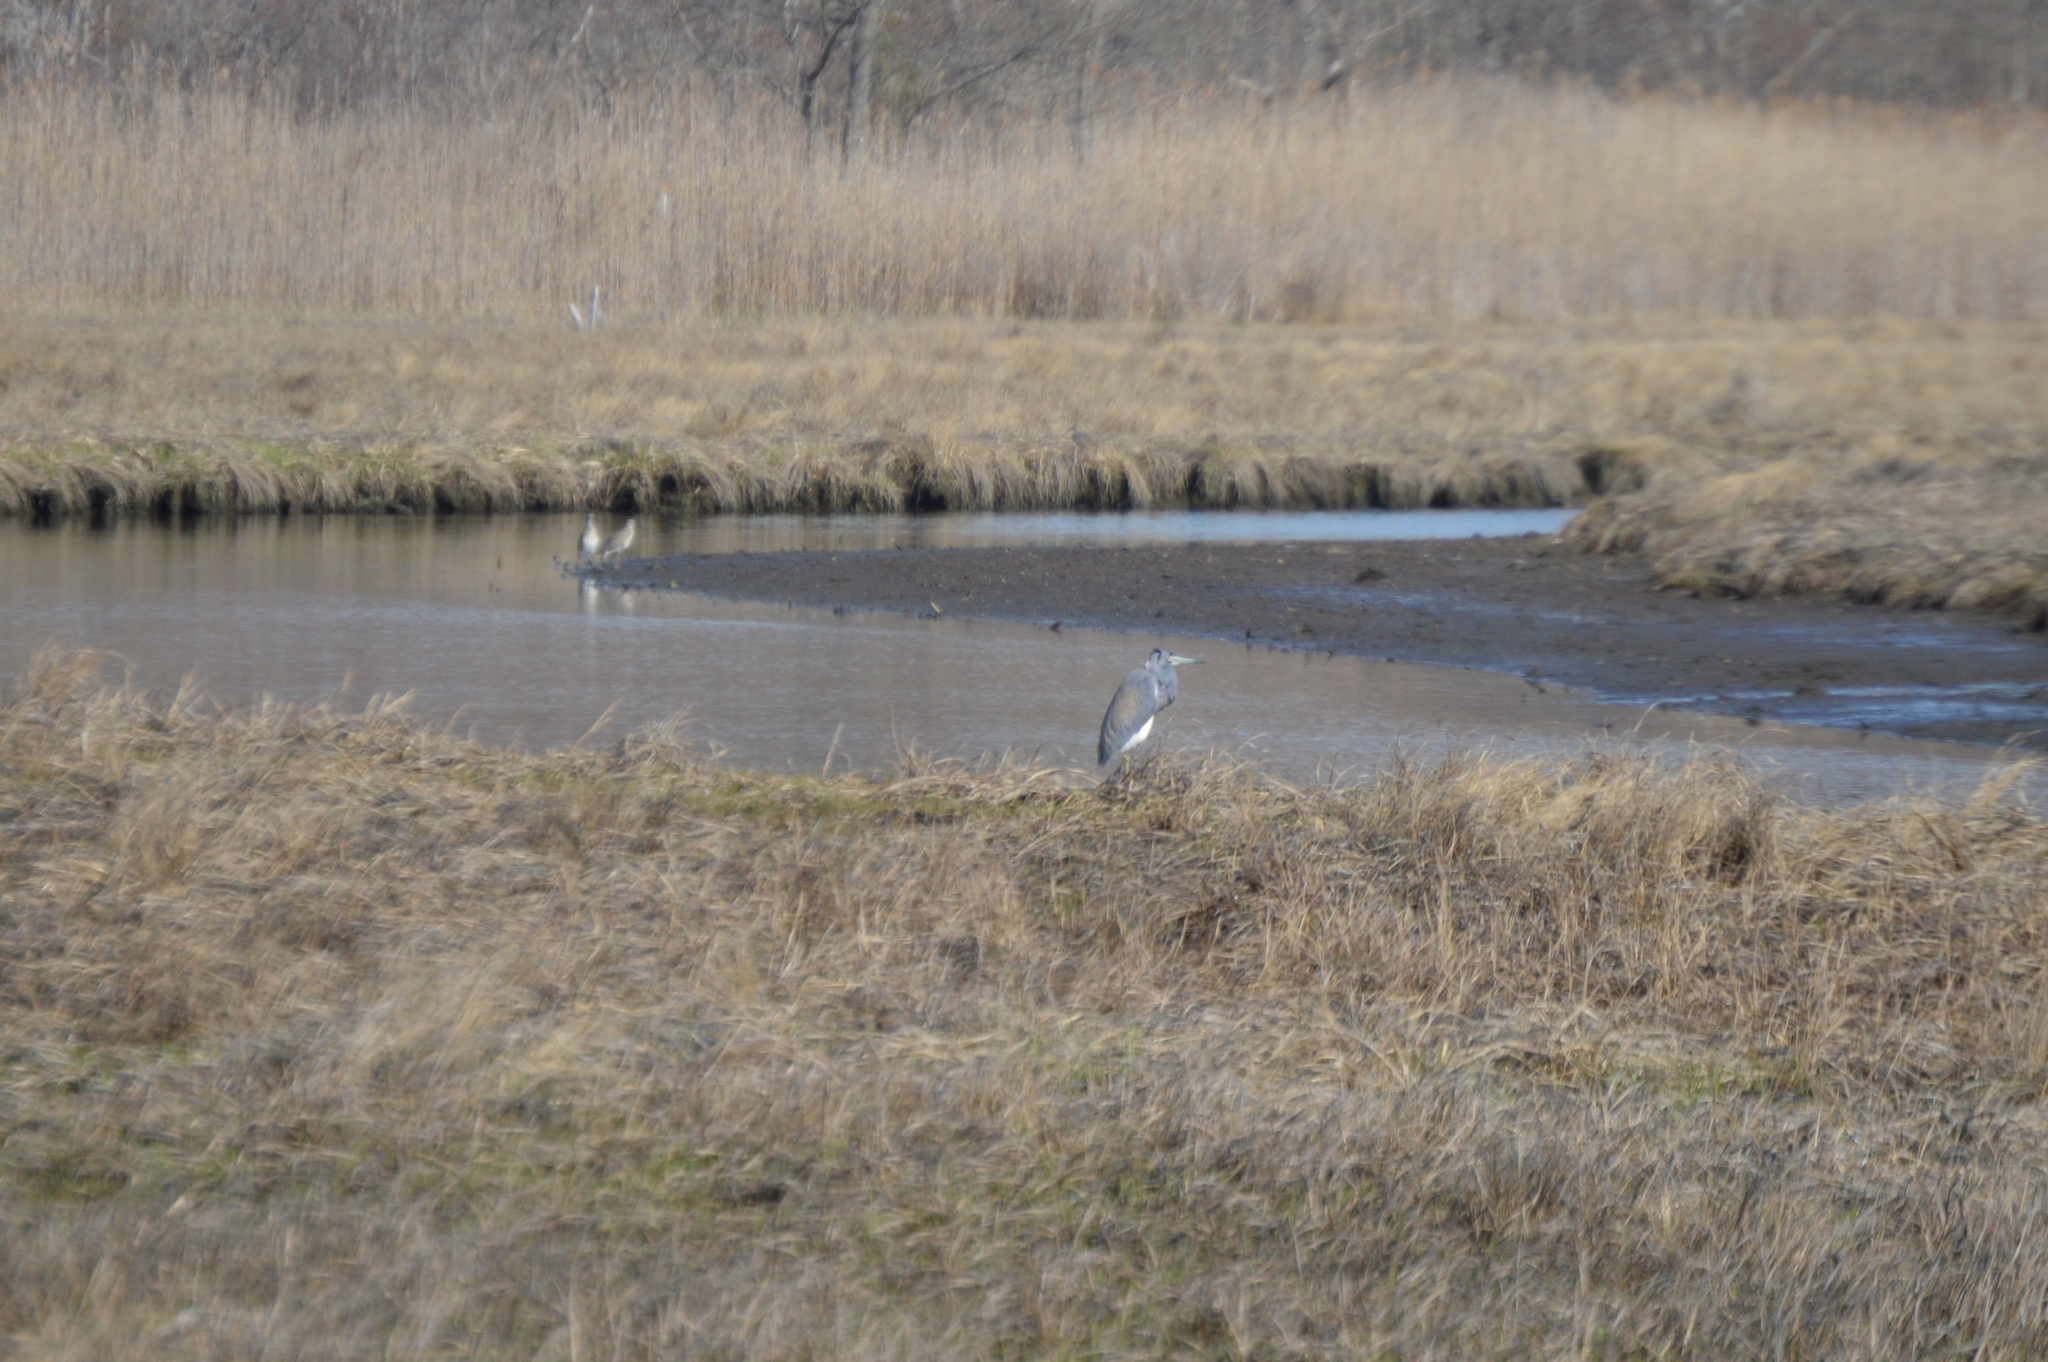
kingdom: Animalia
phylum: Chordata
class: Aves
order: Pelecaniformes
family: Ardeidae
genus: Egretta
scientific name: Egretta tricolor
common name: Tricolored heron
